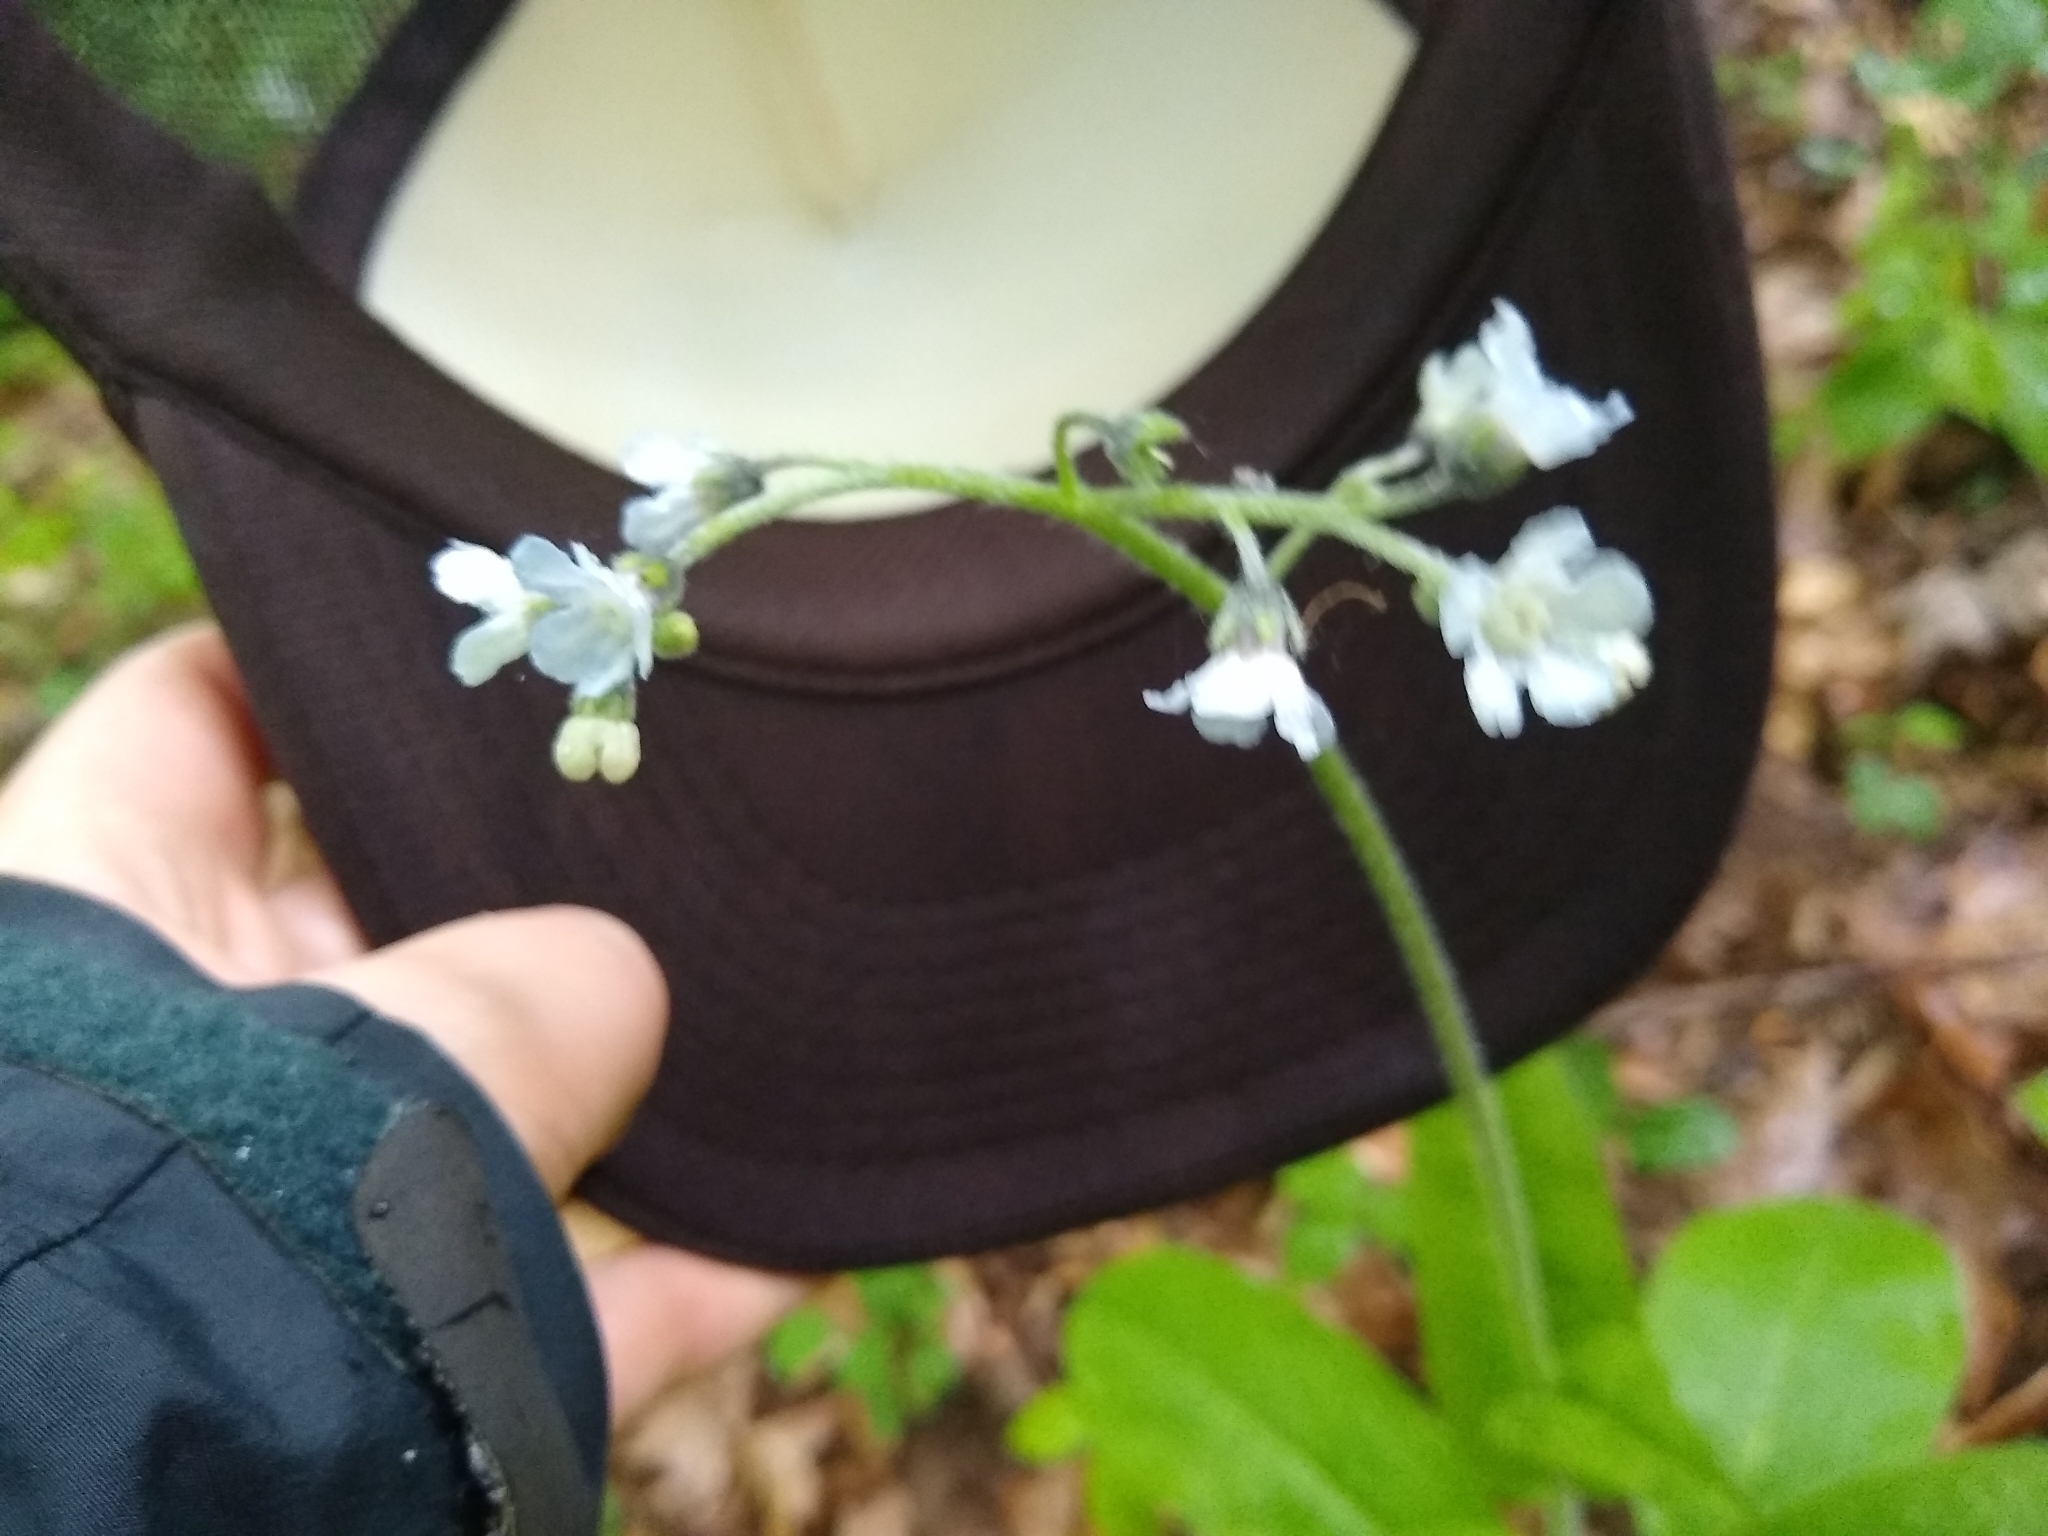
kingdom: Plantae
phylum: Tracheophyta
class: Magnoliopsida
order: Boraginales
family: Boraginaceae
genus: Andersonglossum
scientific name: Andersonglossum virginianum
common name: Wild comfrey
